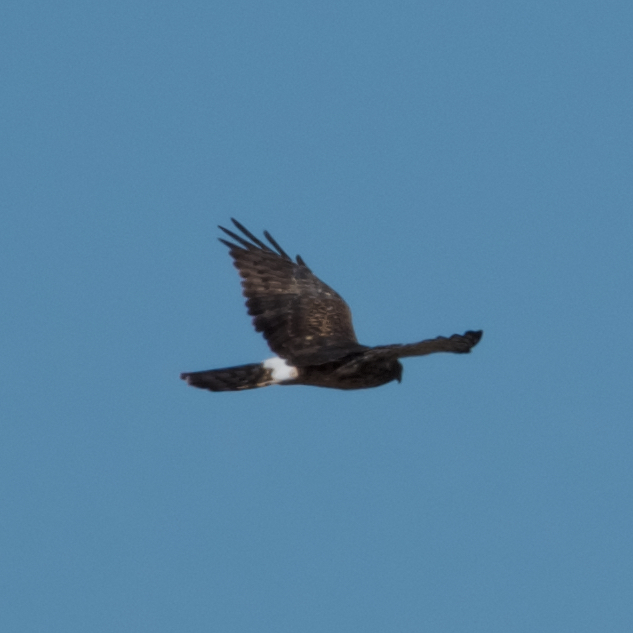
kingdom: Animalia
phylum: Chordata
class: Aves
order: Accipitriformes
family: Accipitridae
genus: Circus
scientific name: Circus cyaneus
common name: Hen harrier
